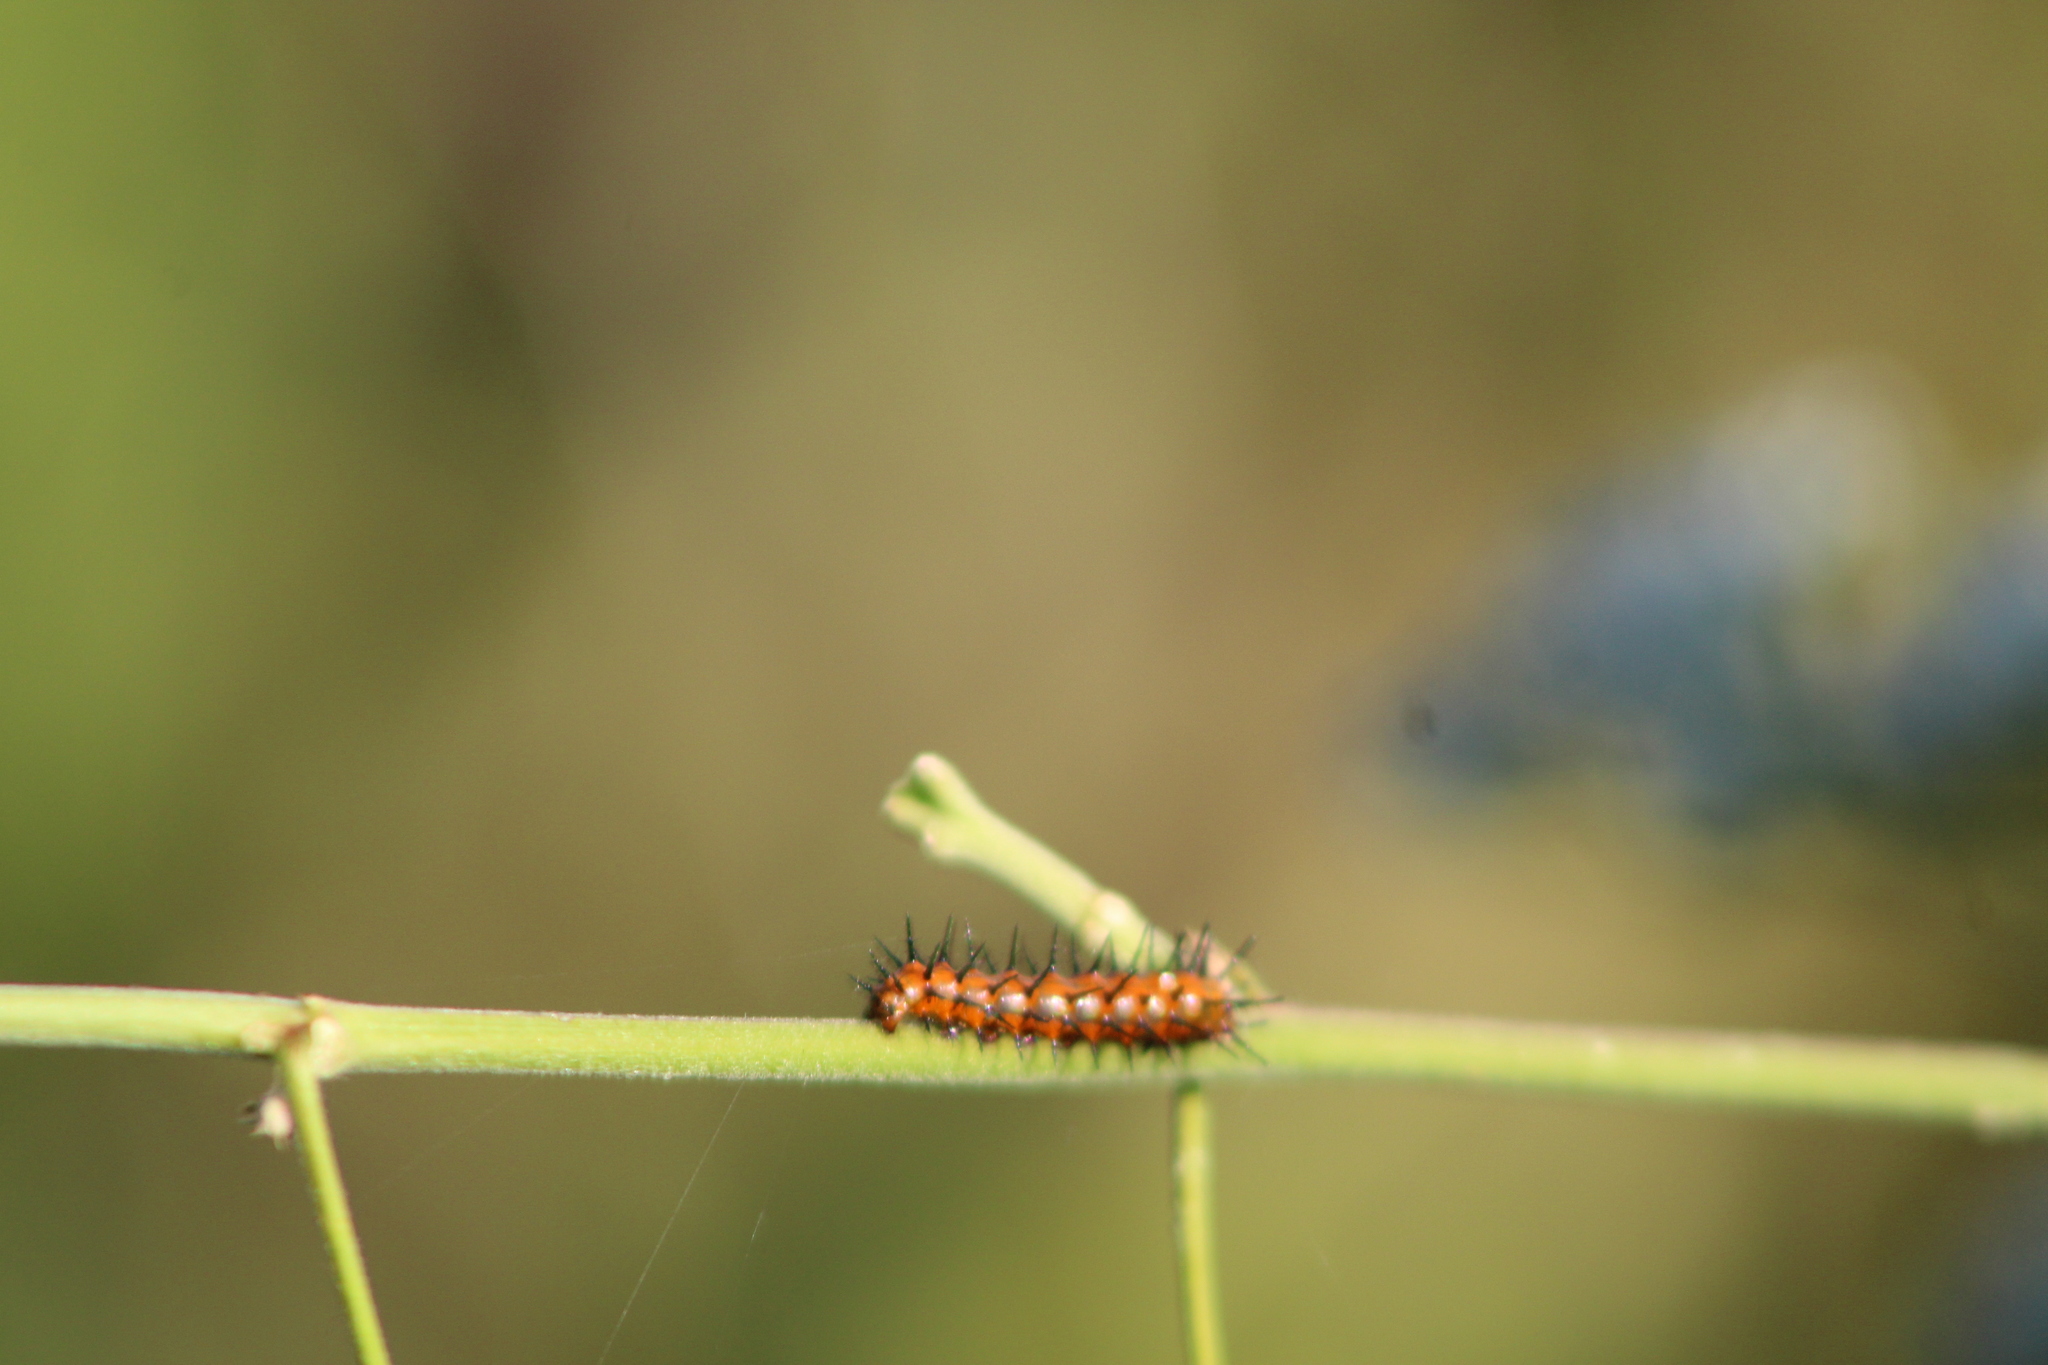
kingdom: Animalia
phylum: Arthropoda
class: Insecta
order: Lepidoptera
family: Nymphalidae
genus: Dione
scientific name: Dione vanillae
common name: Gulf fritillary
